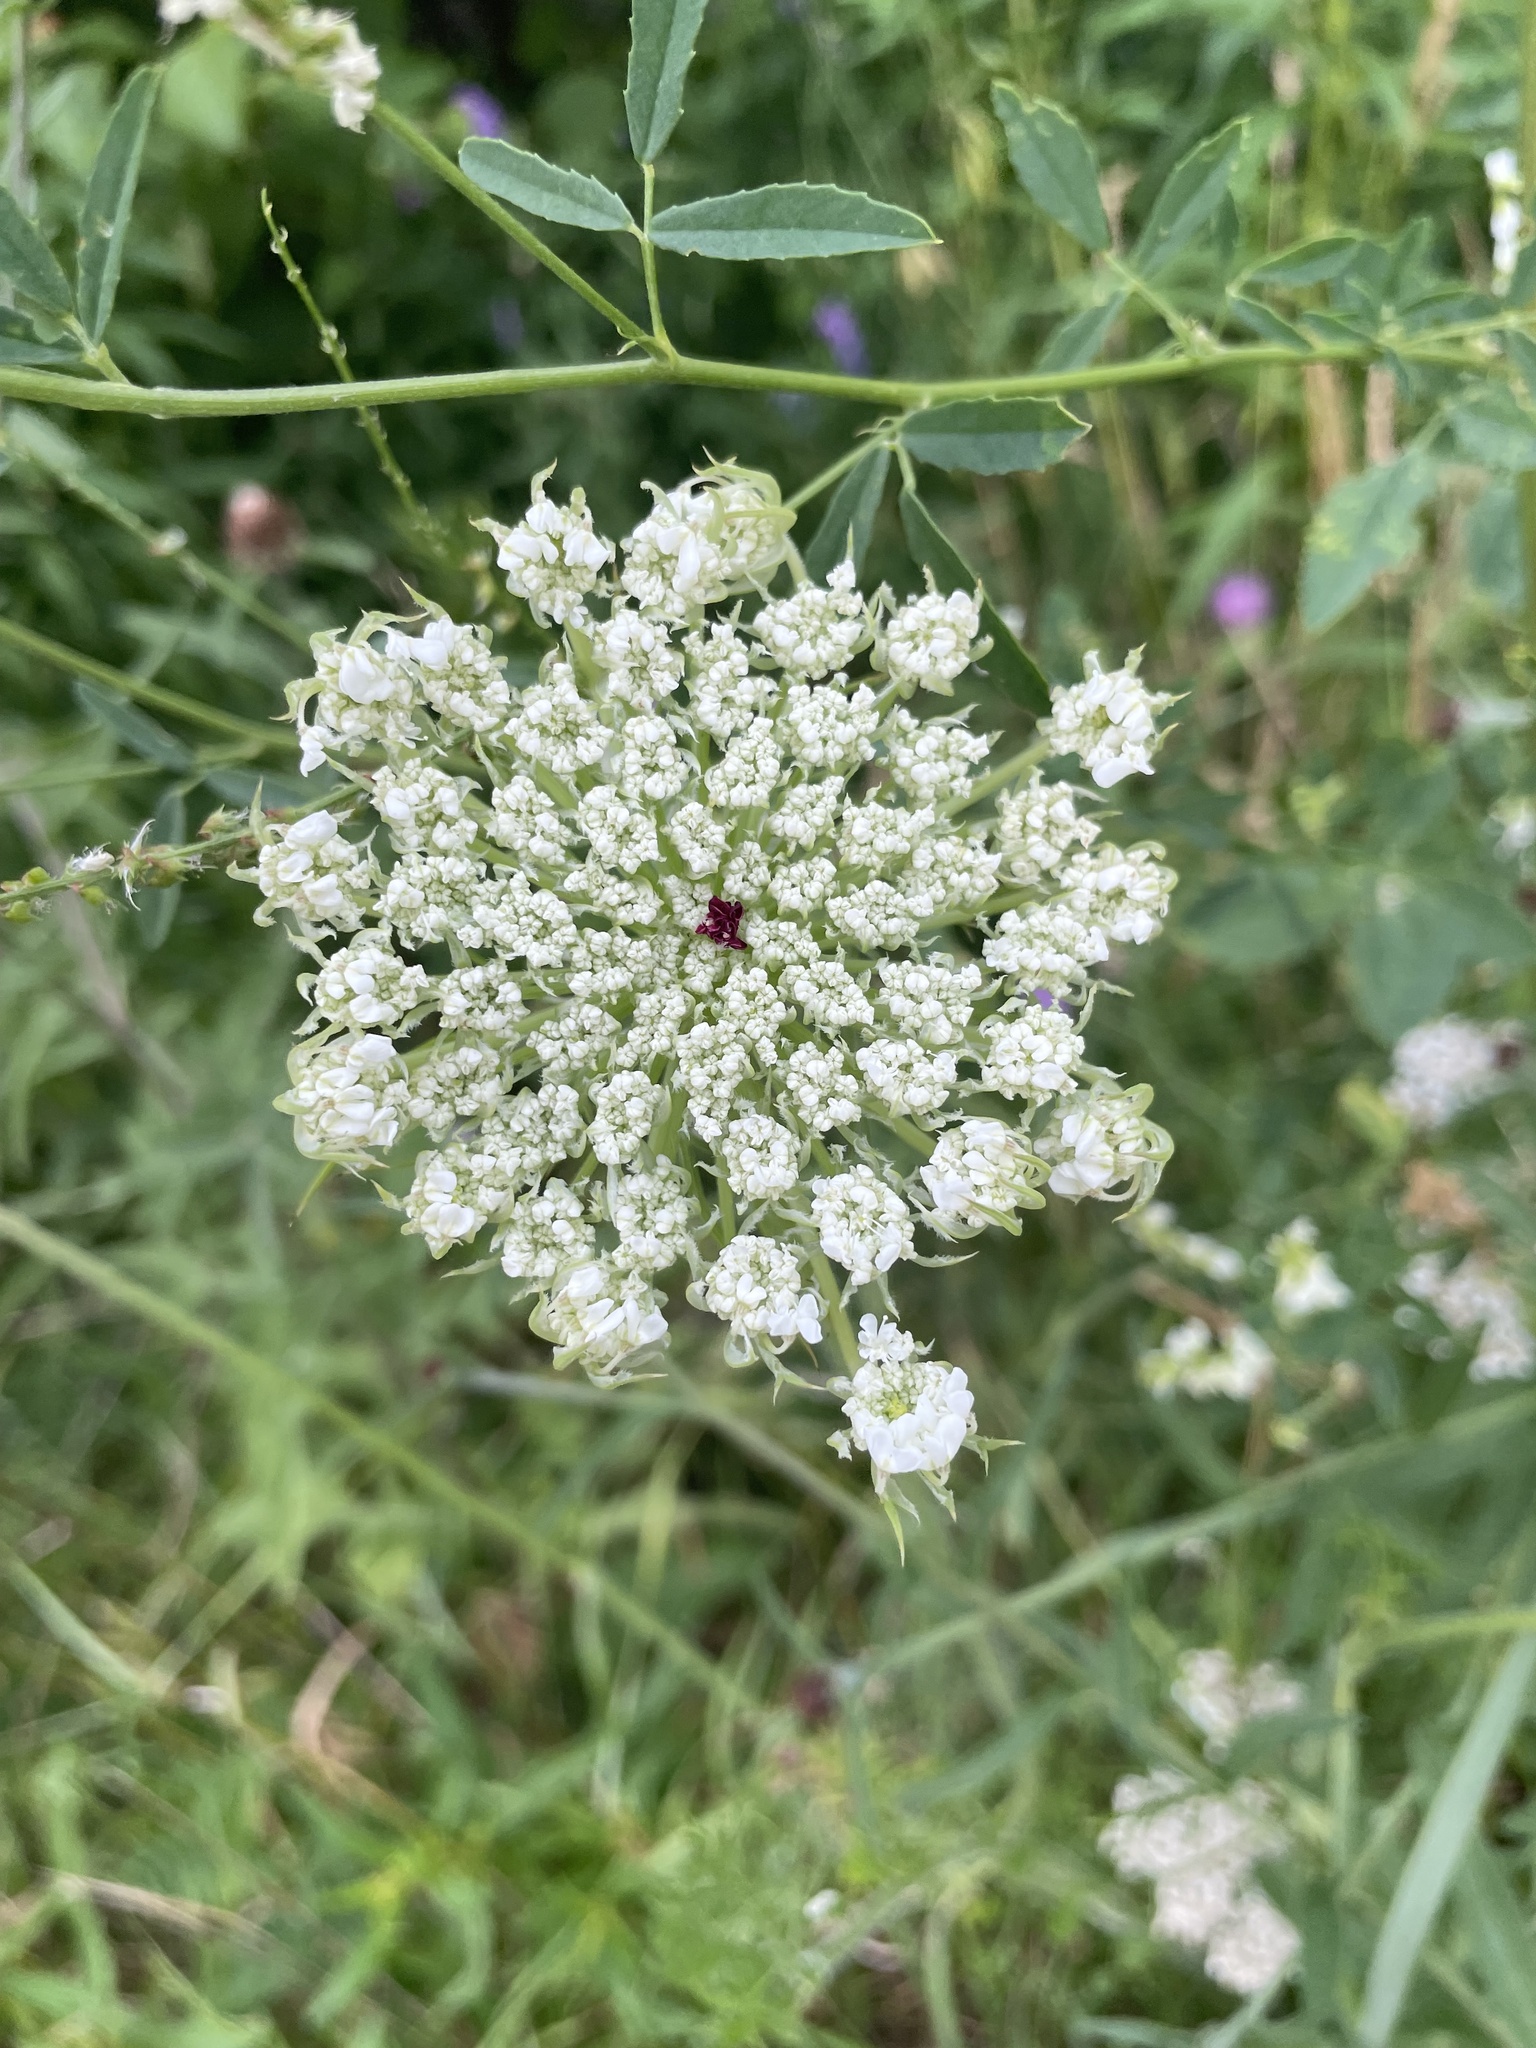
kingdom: Plantae
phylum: Tracheophyta
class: Magnoliopsida
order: Apiales
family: Apiaceae
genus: Daucus
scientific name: Daucus carota
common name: Wild carrot
